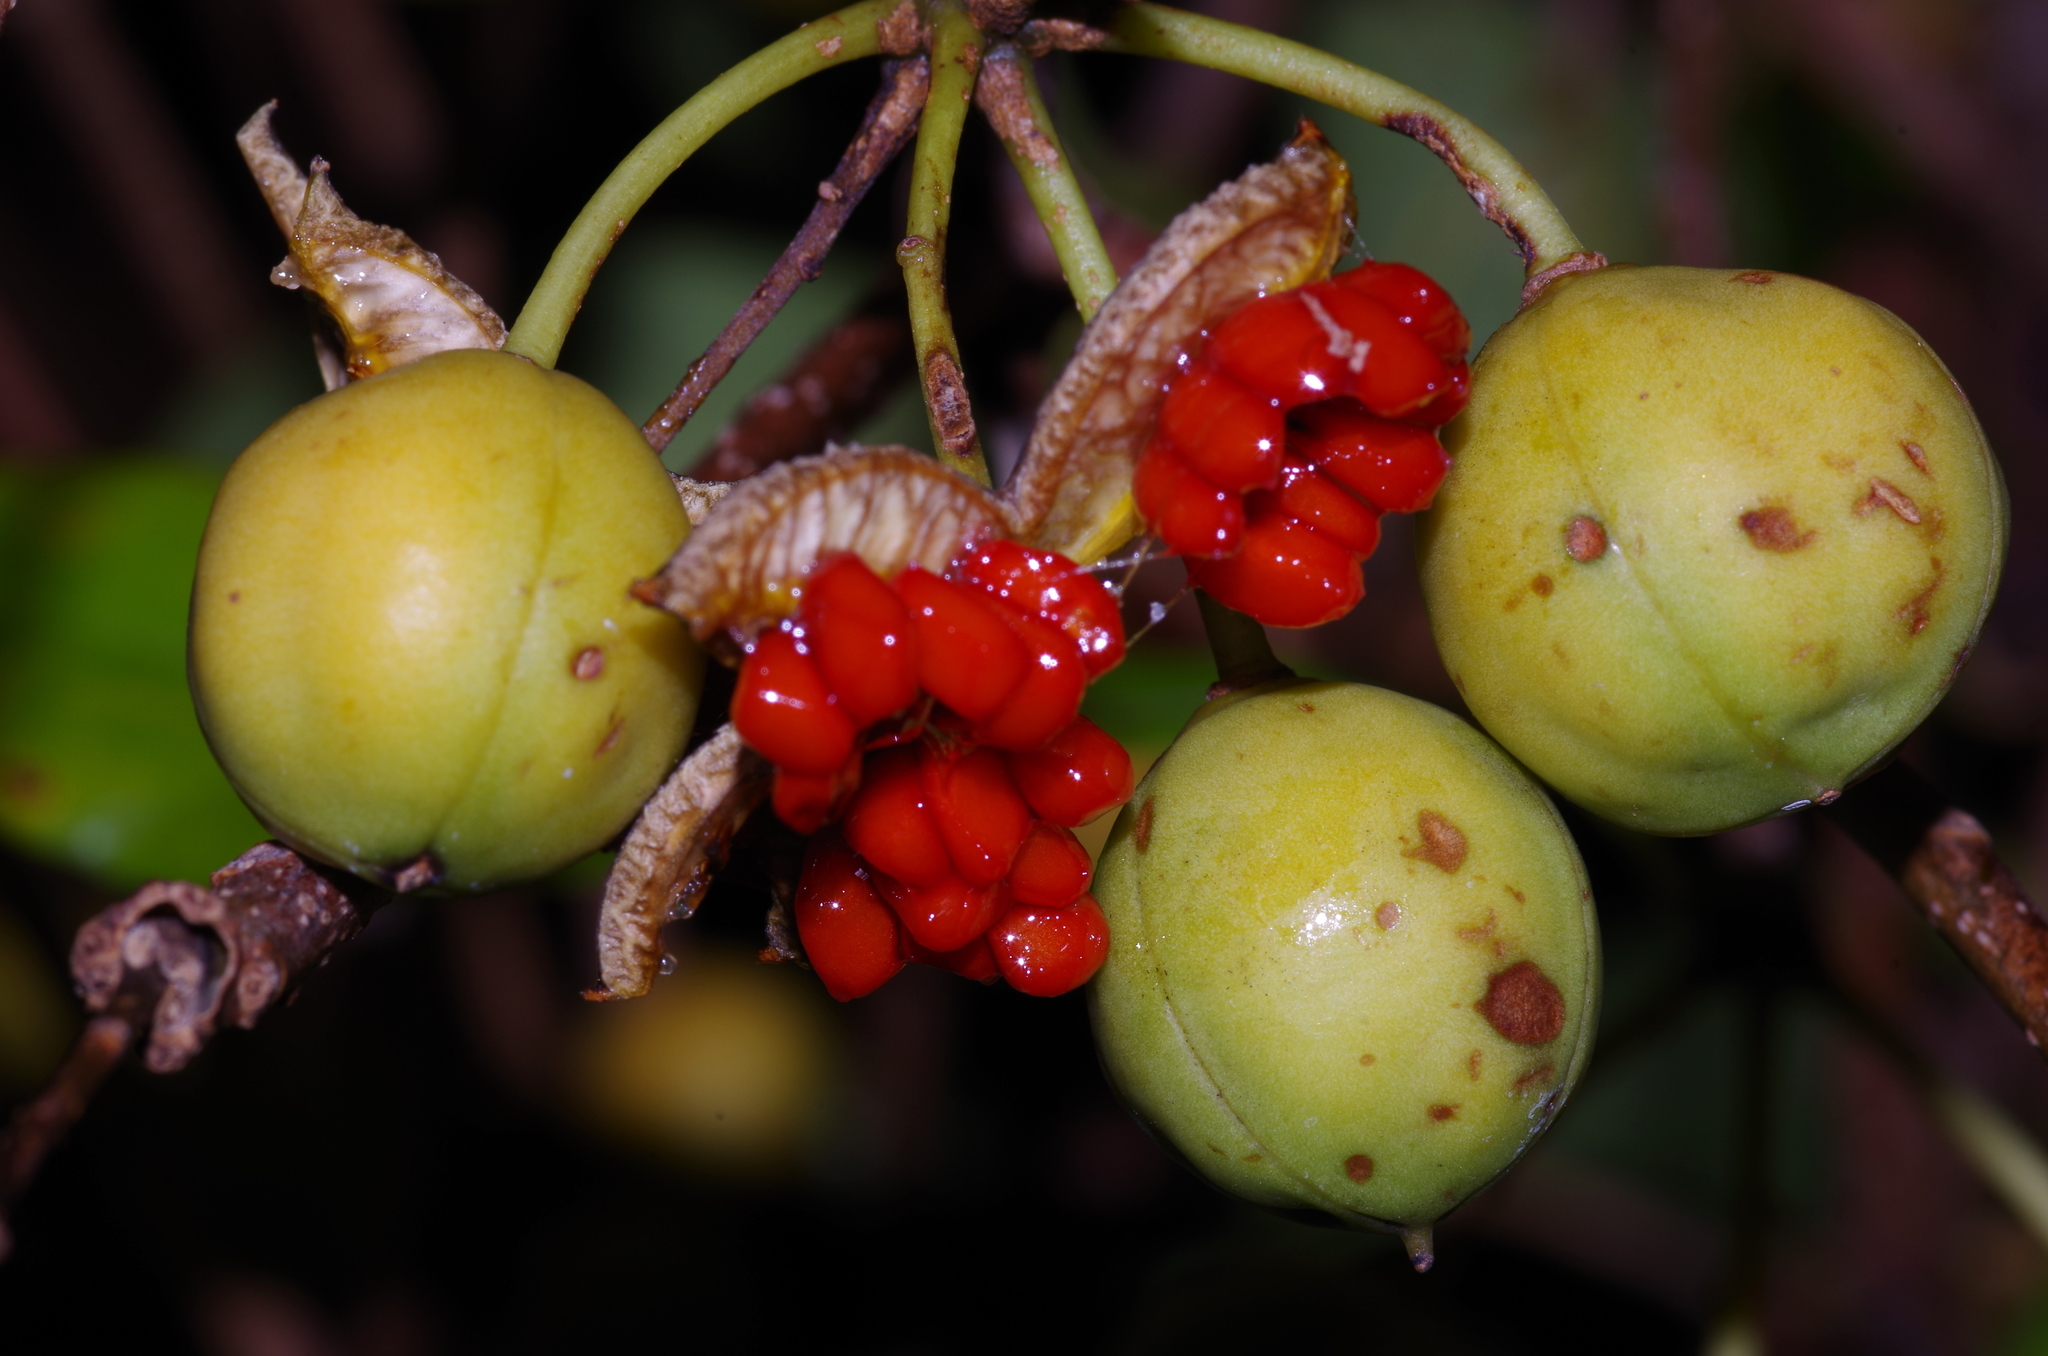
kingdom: Plantae
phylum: Tracheophyta
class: Magnoliopsida
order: Apiales
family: Pittosporaceae
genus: Pittosporum
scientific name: Pittosporum tobira
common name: Japanese cheesewood
